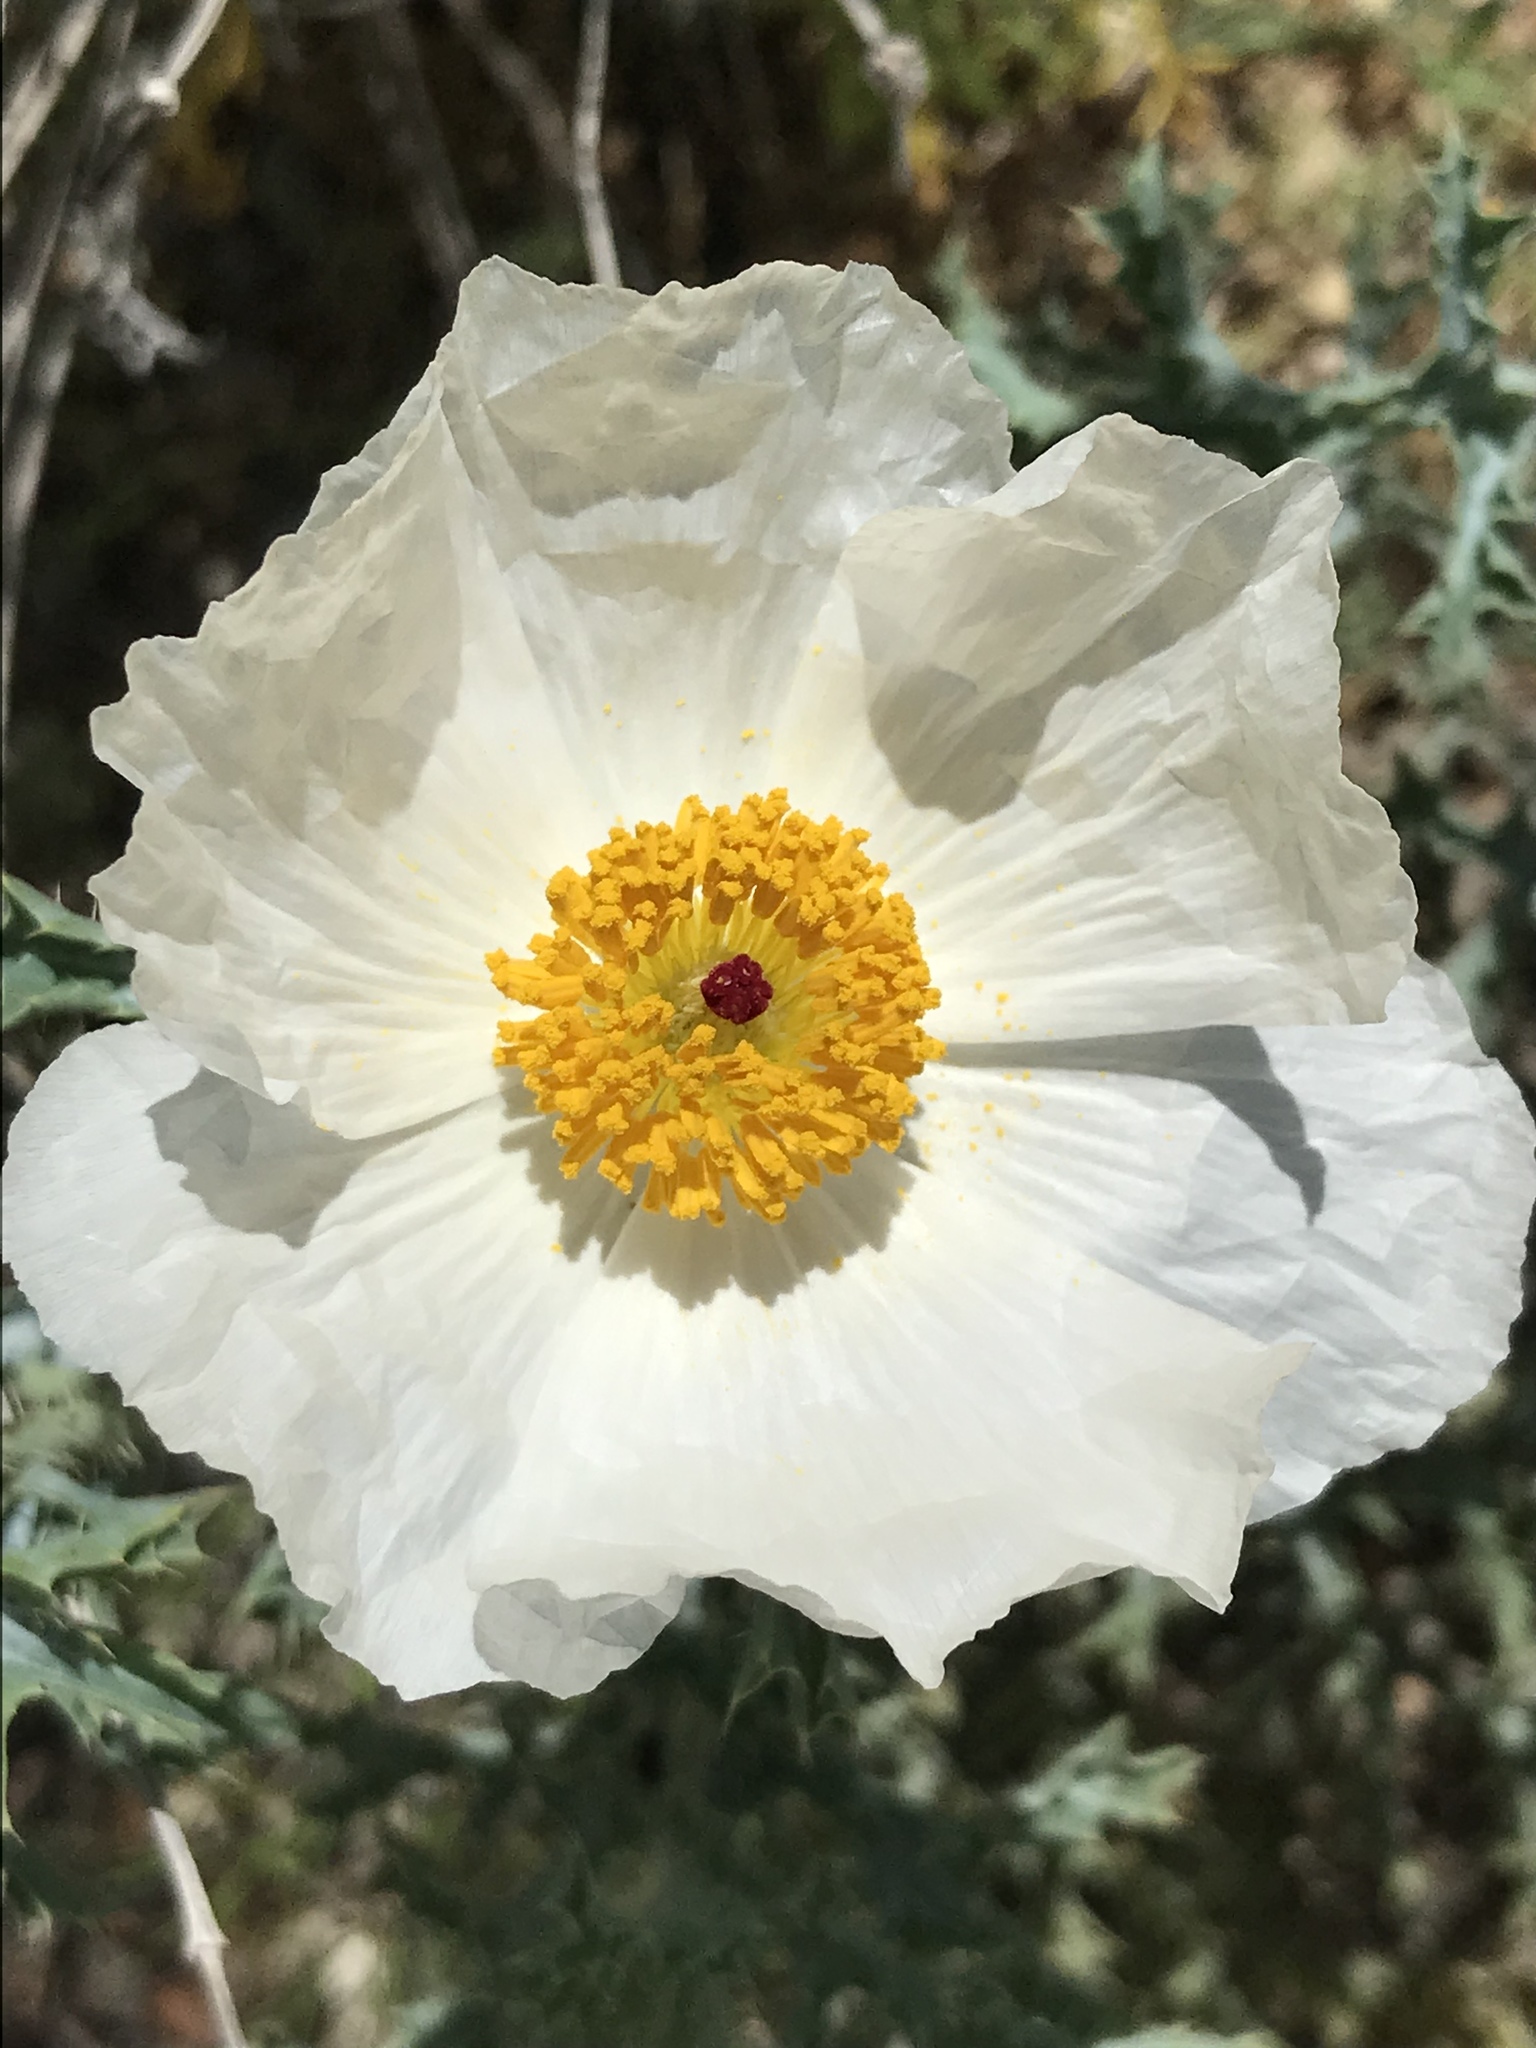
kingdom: Plantae
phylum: Tracheophyta
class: Magnoliopsida
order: Ranunculales
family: Papaveraceae
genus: Argemone
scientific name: Argemone polyanthemos
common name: Plains prickly-poppy
